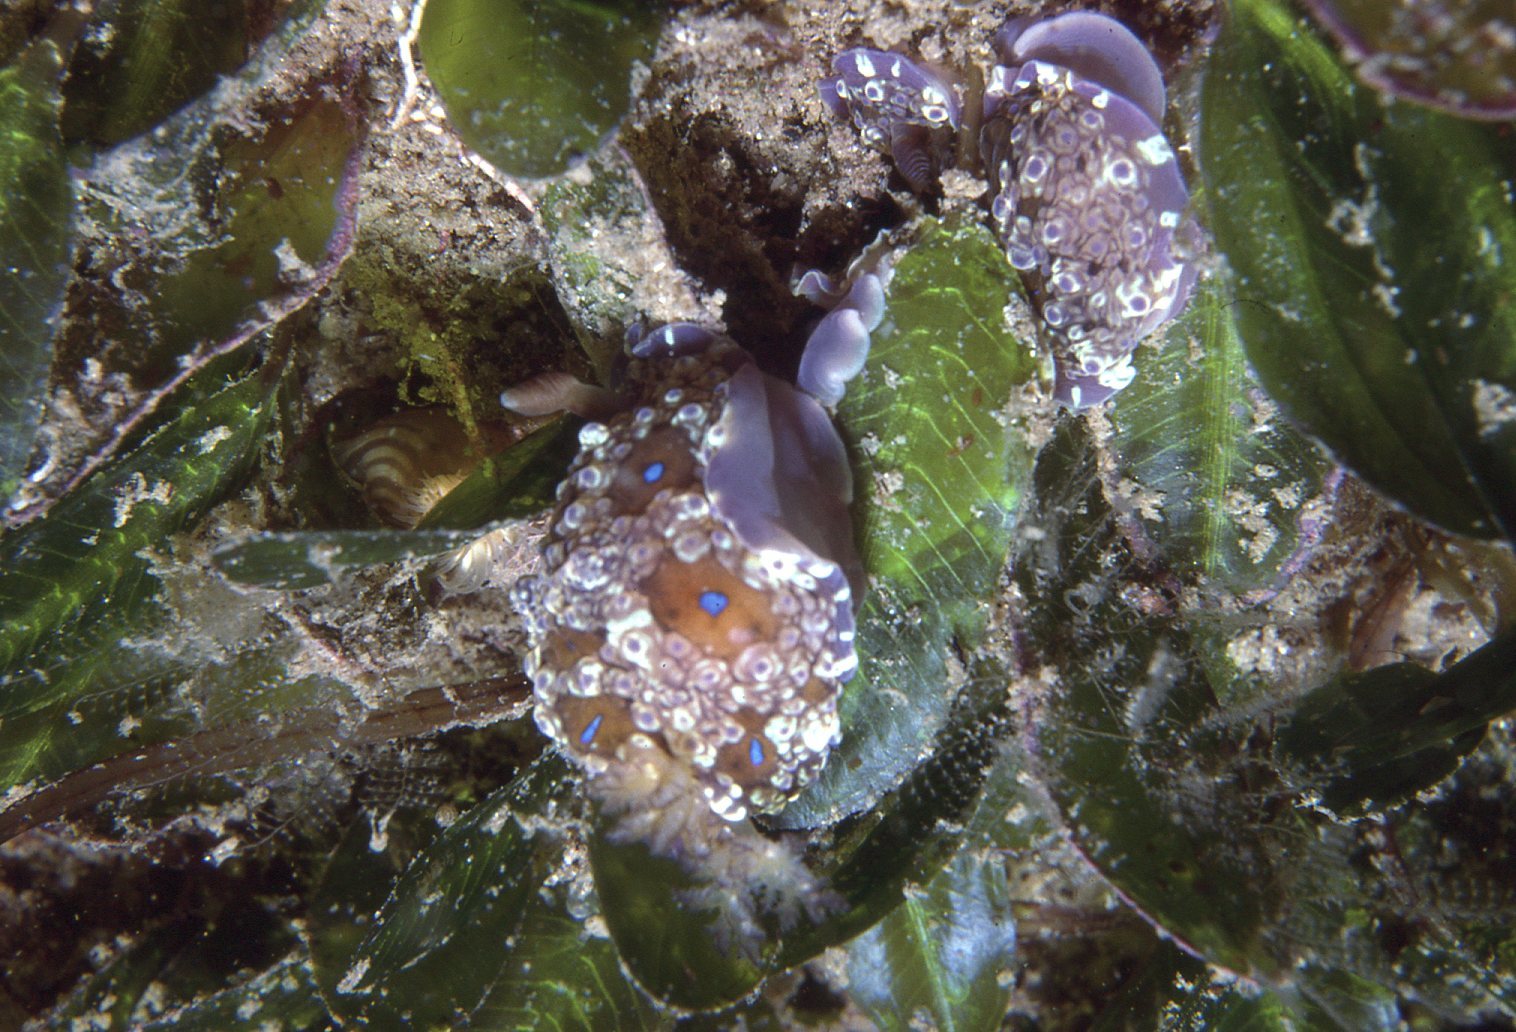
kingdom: Animalia
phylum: Mollusca
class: Gastropoda
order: Nudibranchia
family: Dendrodorididae
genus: Dendrodoris
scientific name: Dendrodoris krusensternii
